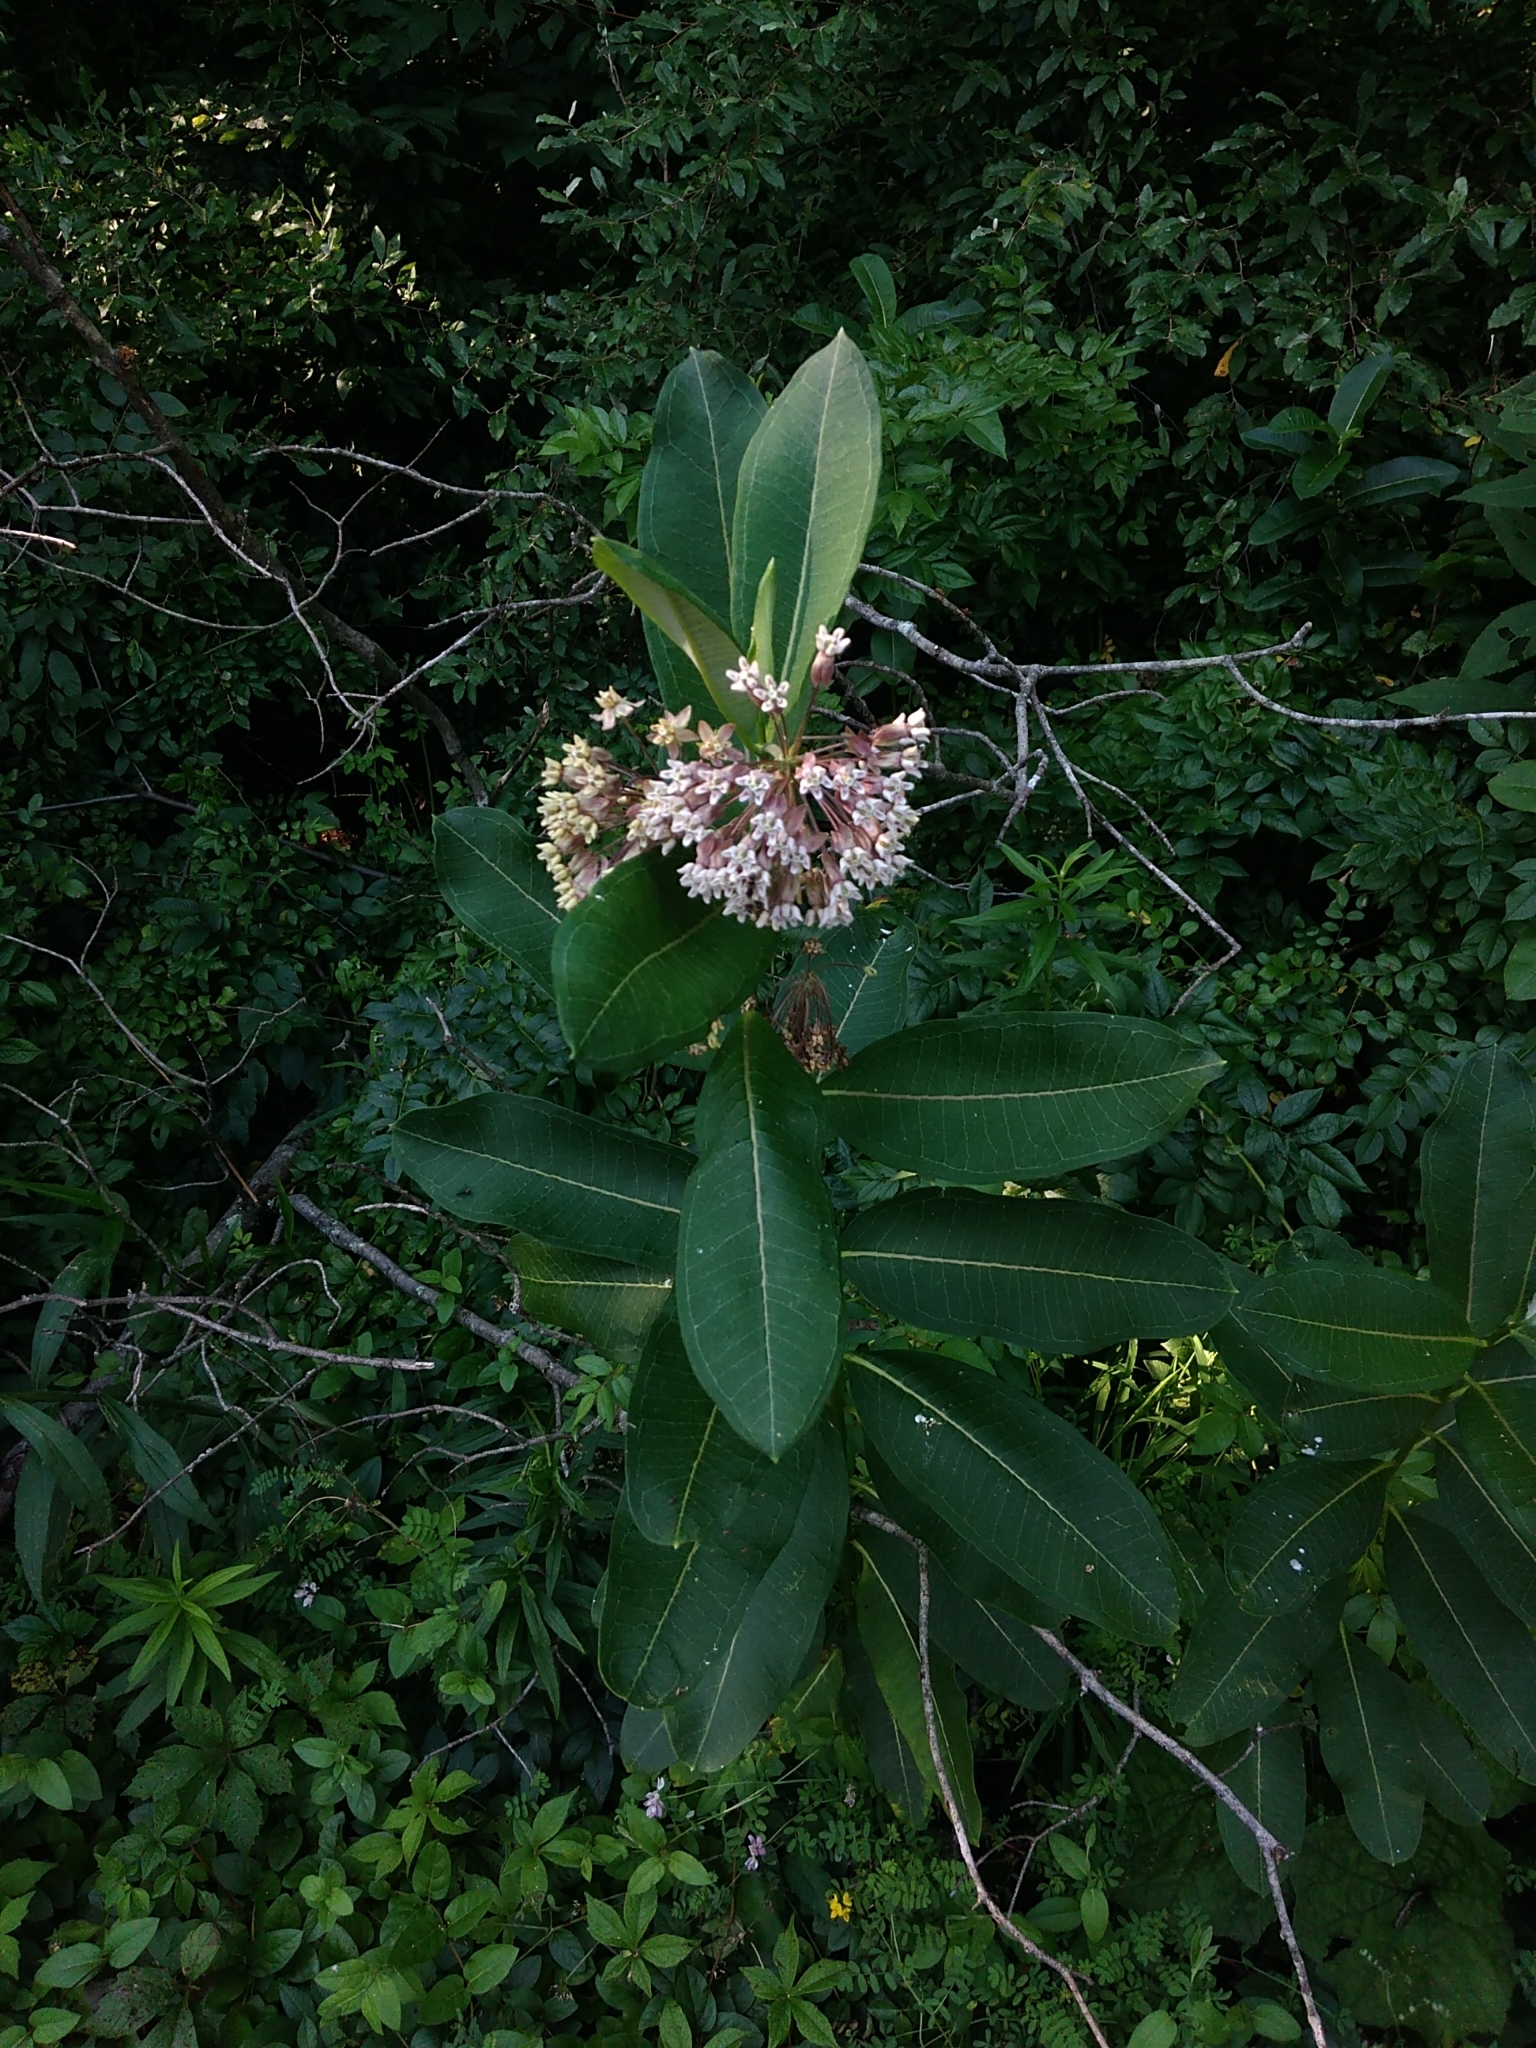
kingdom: Plantae
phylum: Tracheophyta
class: Magnoliopsida
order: Gentianales
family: Apocynaceae
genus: Asclepias
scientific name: Asclepias syriaca
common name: Common milkweed
